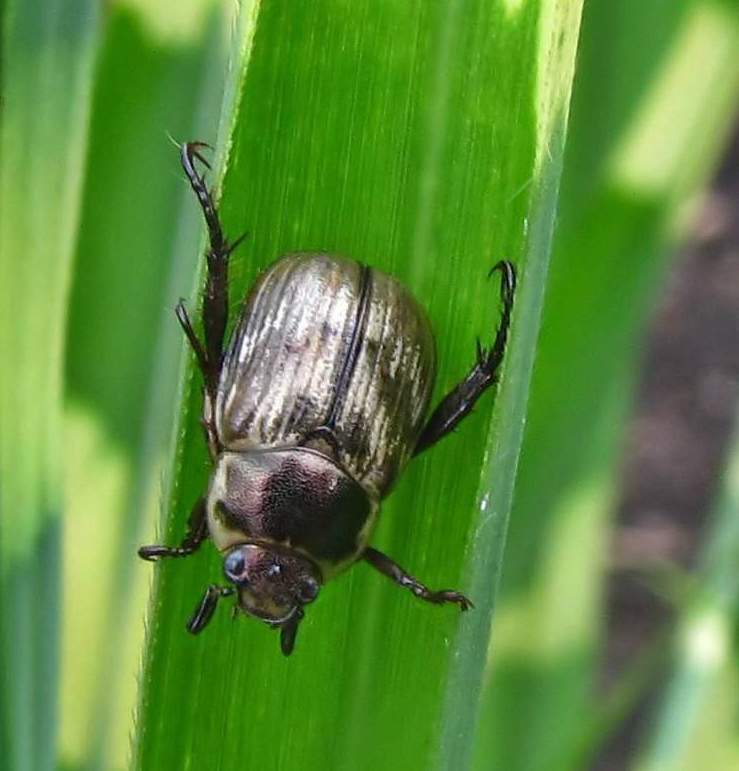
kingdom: Animalia
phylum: Arthropoda
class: Insecta
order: Coleoptera
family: Scarabaeidae
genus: Exomala
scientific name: Exomala orientalis
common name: Oriental beetle
